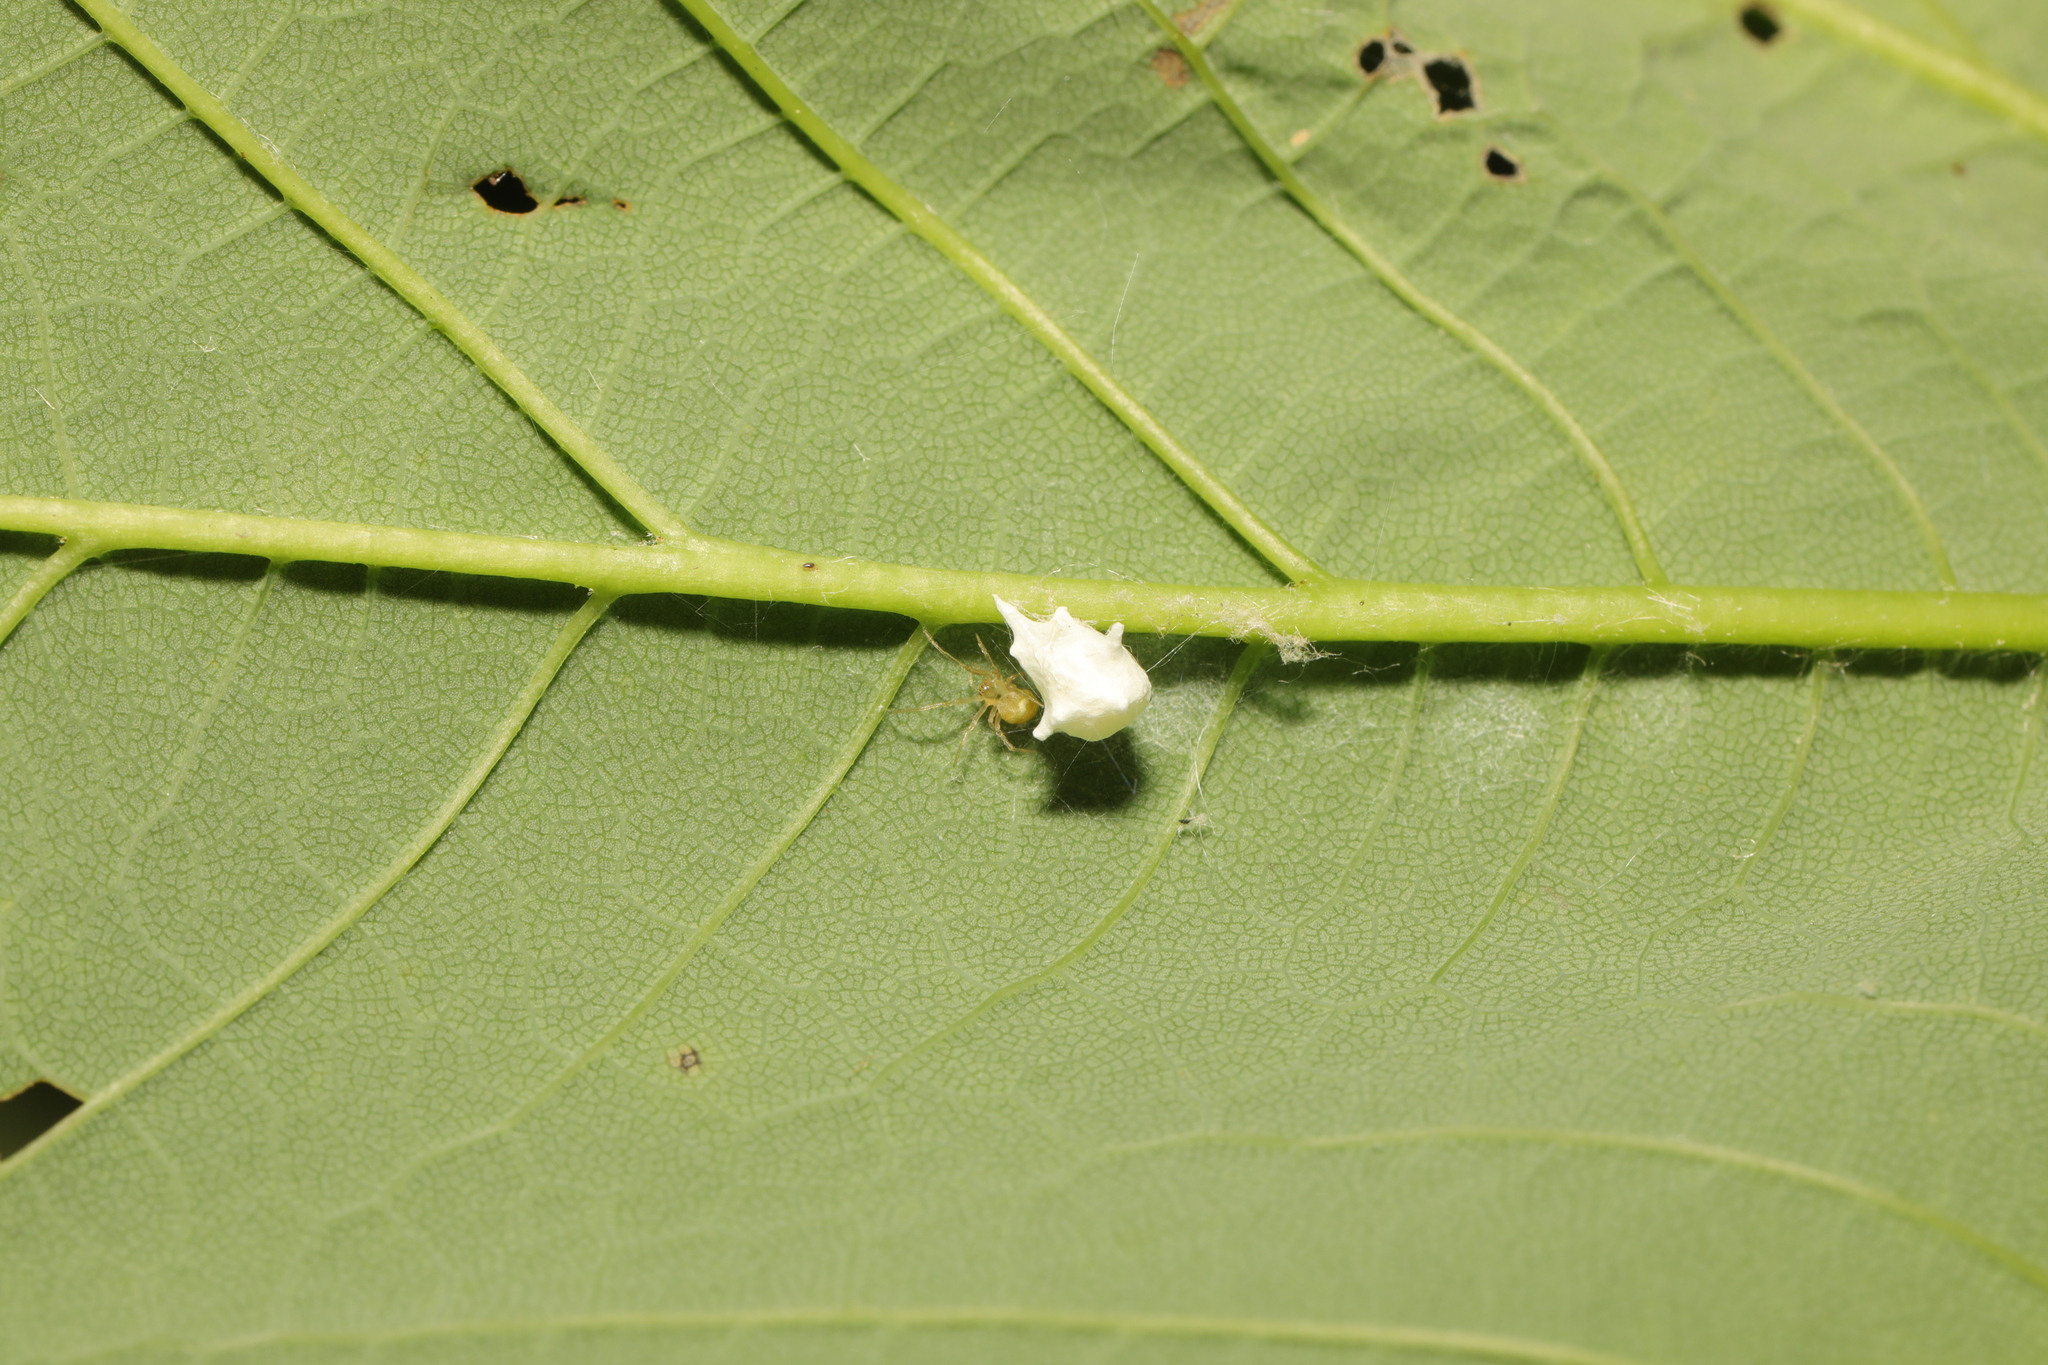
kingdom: Animalia
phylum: Arthropoda
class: Arachnida
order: Araneae
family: Theridiidae
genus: Paidiscura
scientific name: Paidiscura pallens
